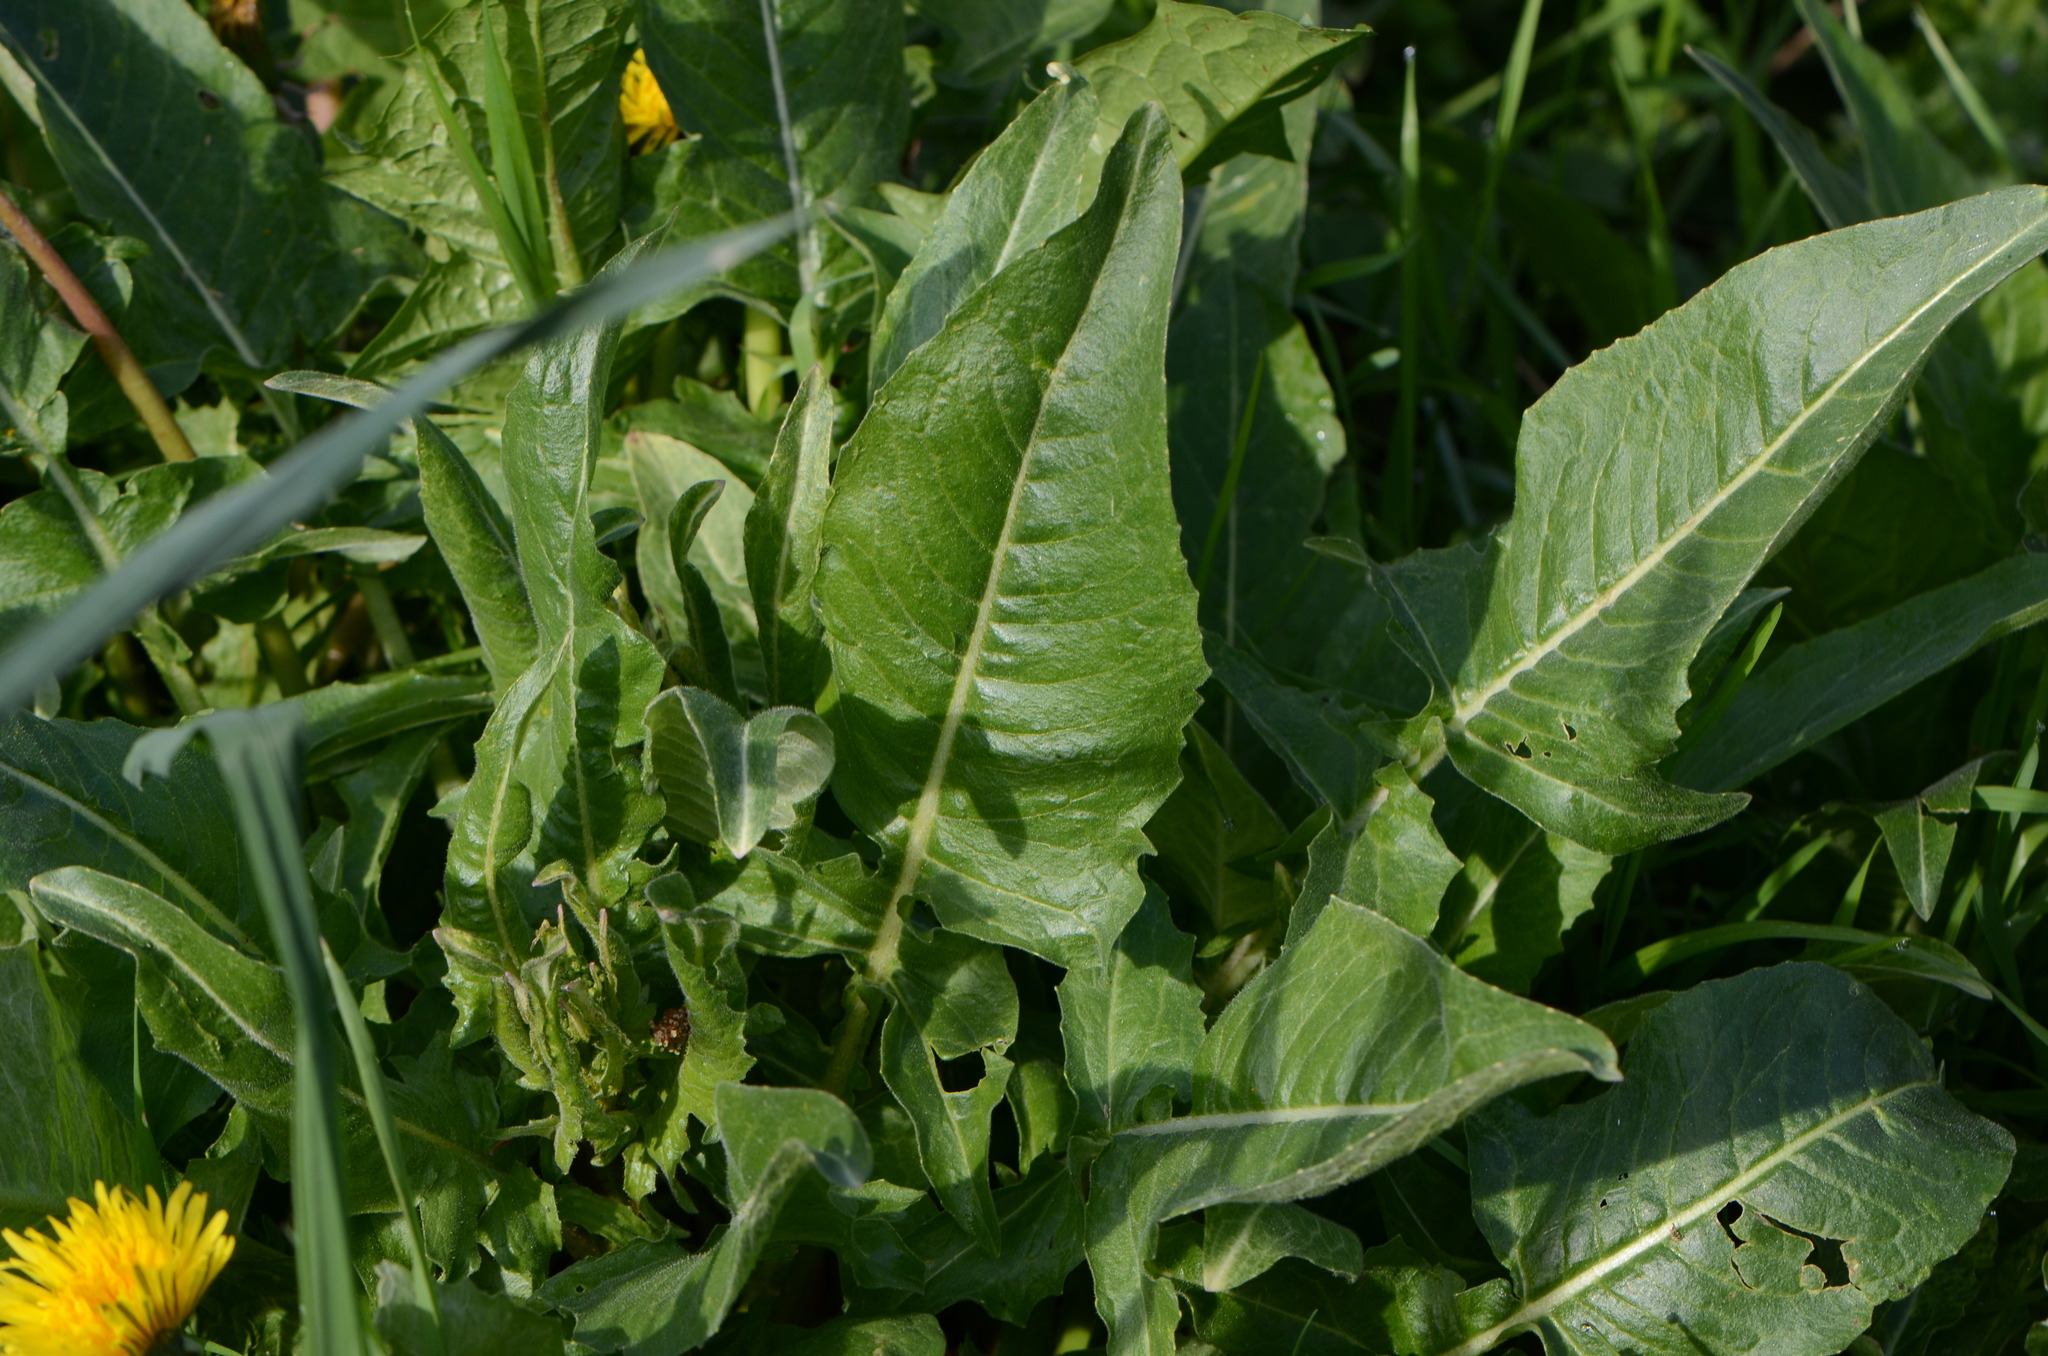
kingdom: Plantae
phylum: Tracheophyta
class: Magnoliopsida
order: Brassicales
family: Brassicaceae
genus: Bunias
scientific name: Bunias orientalis
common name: Warty-cabbage
